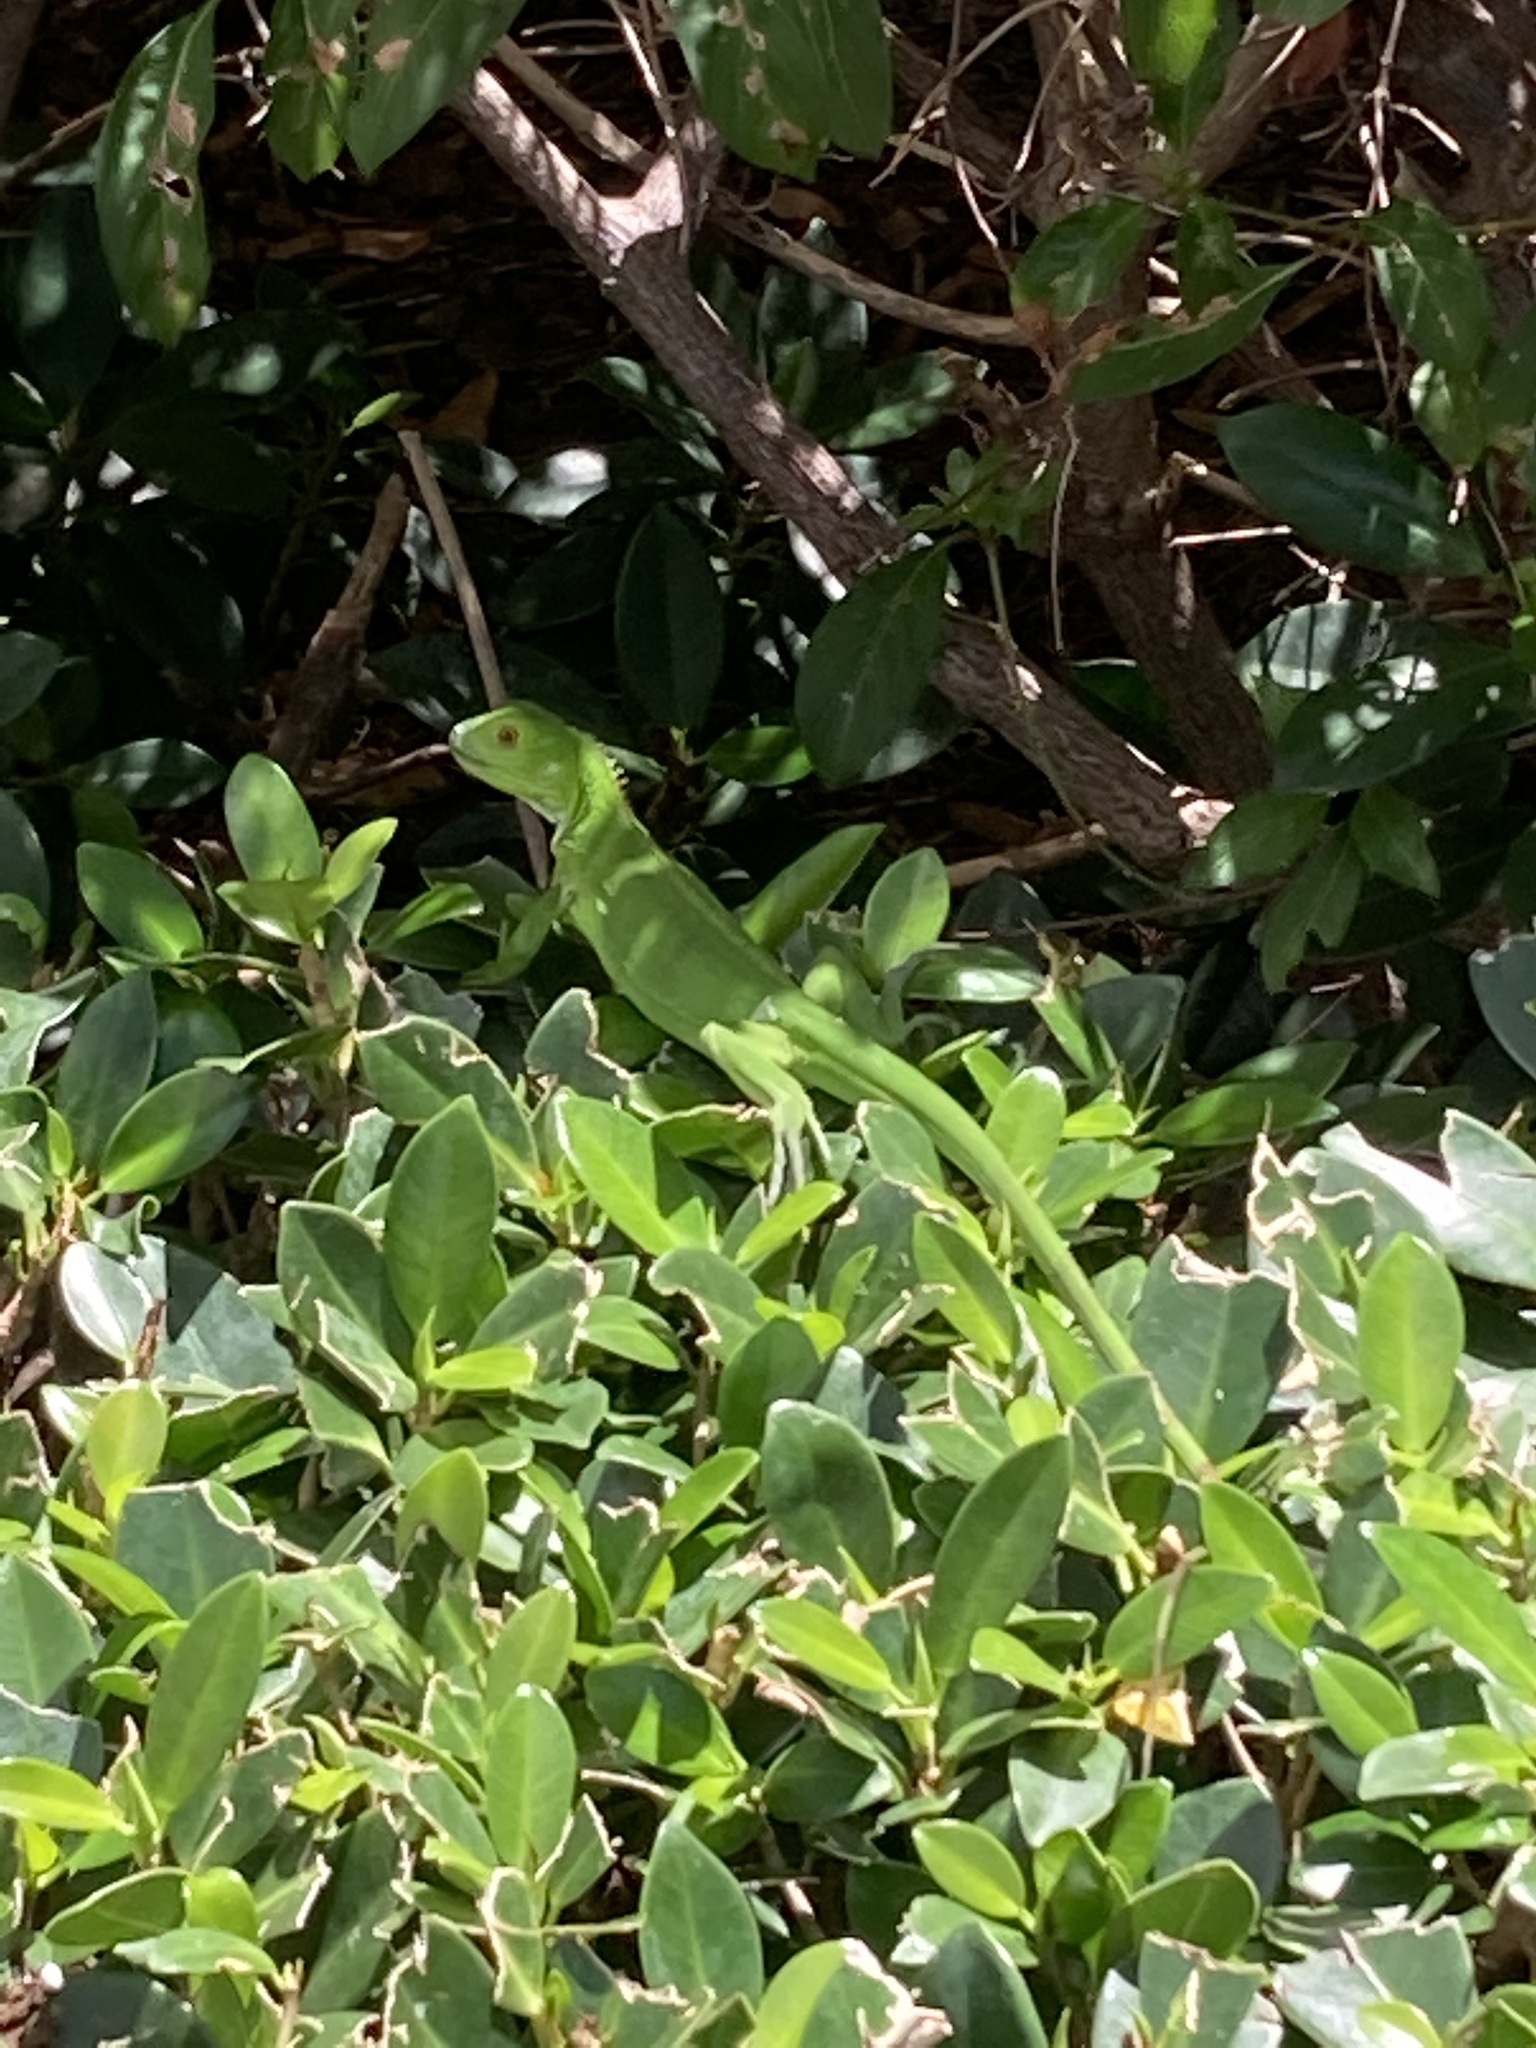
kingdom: Animalia
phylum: Chordata
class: Squamata
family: Iguanidae
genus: Iguana
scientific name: Iguana iguana
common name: Green iguana
